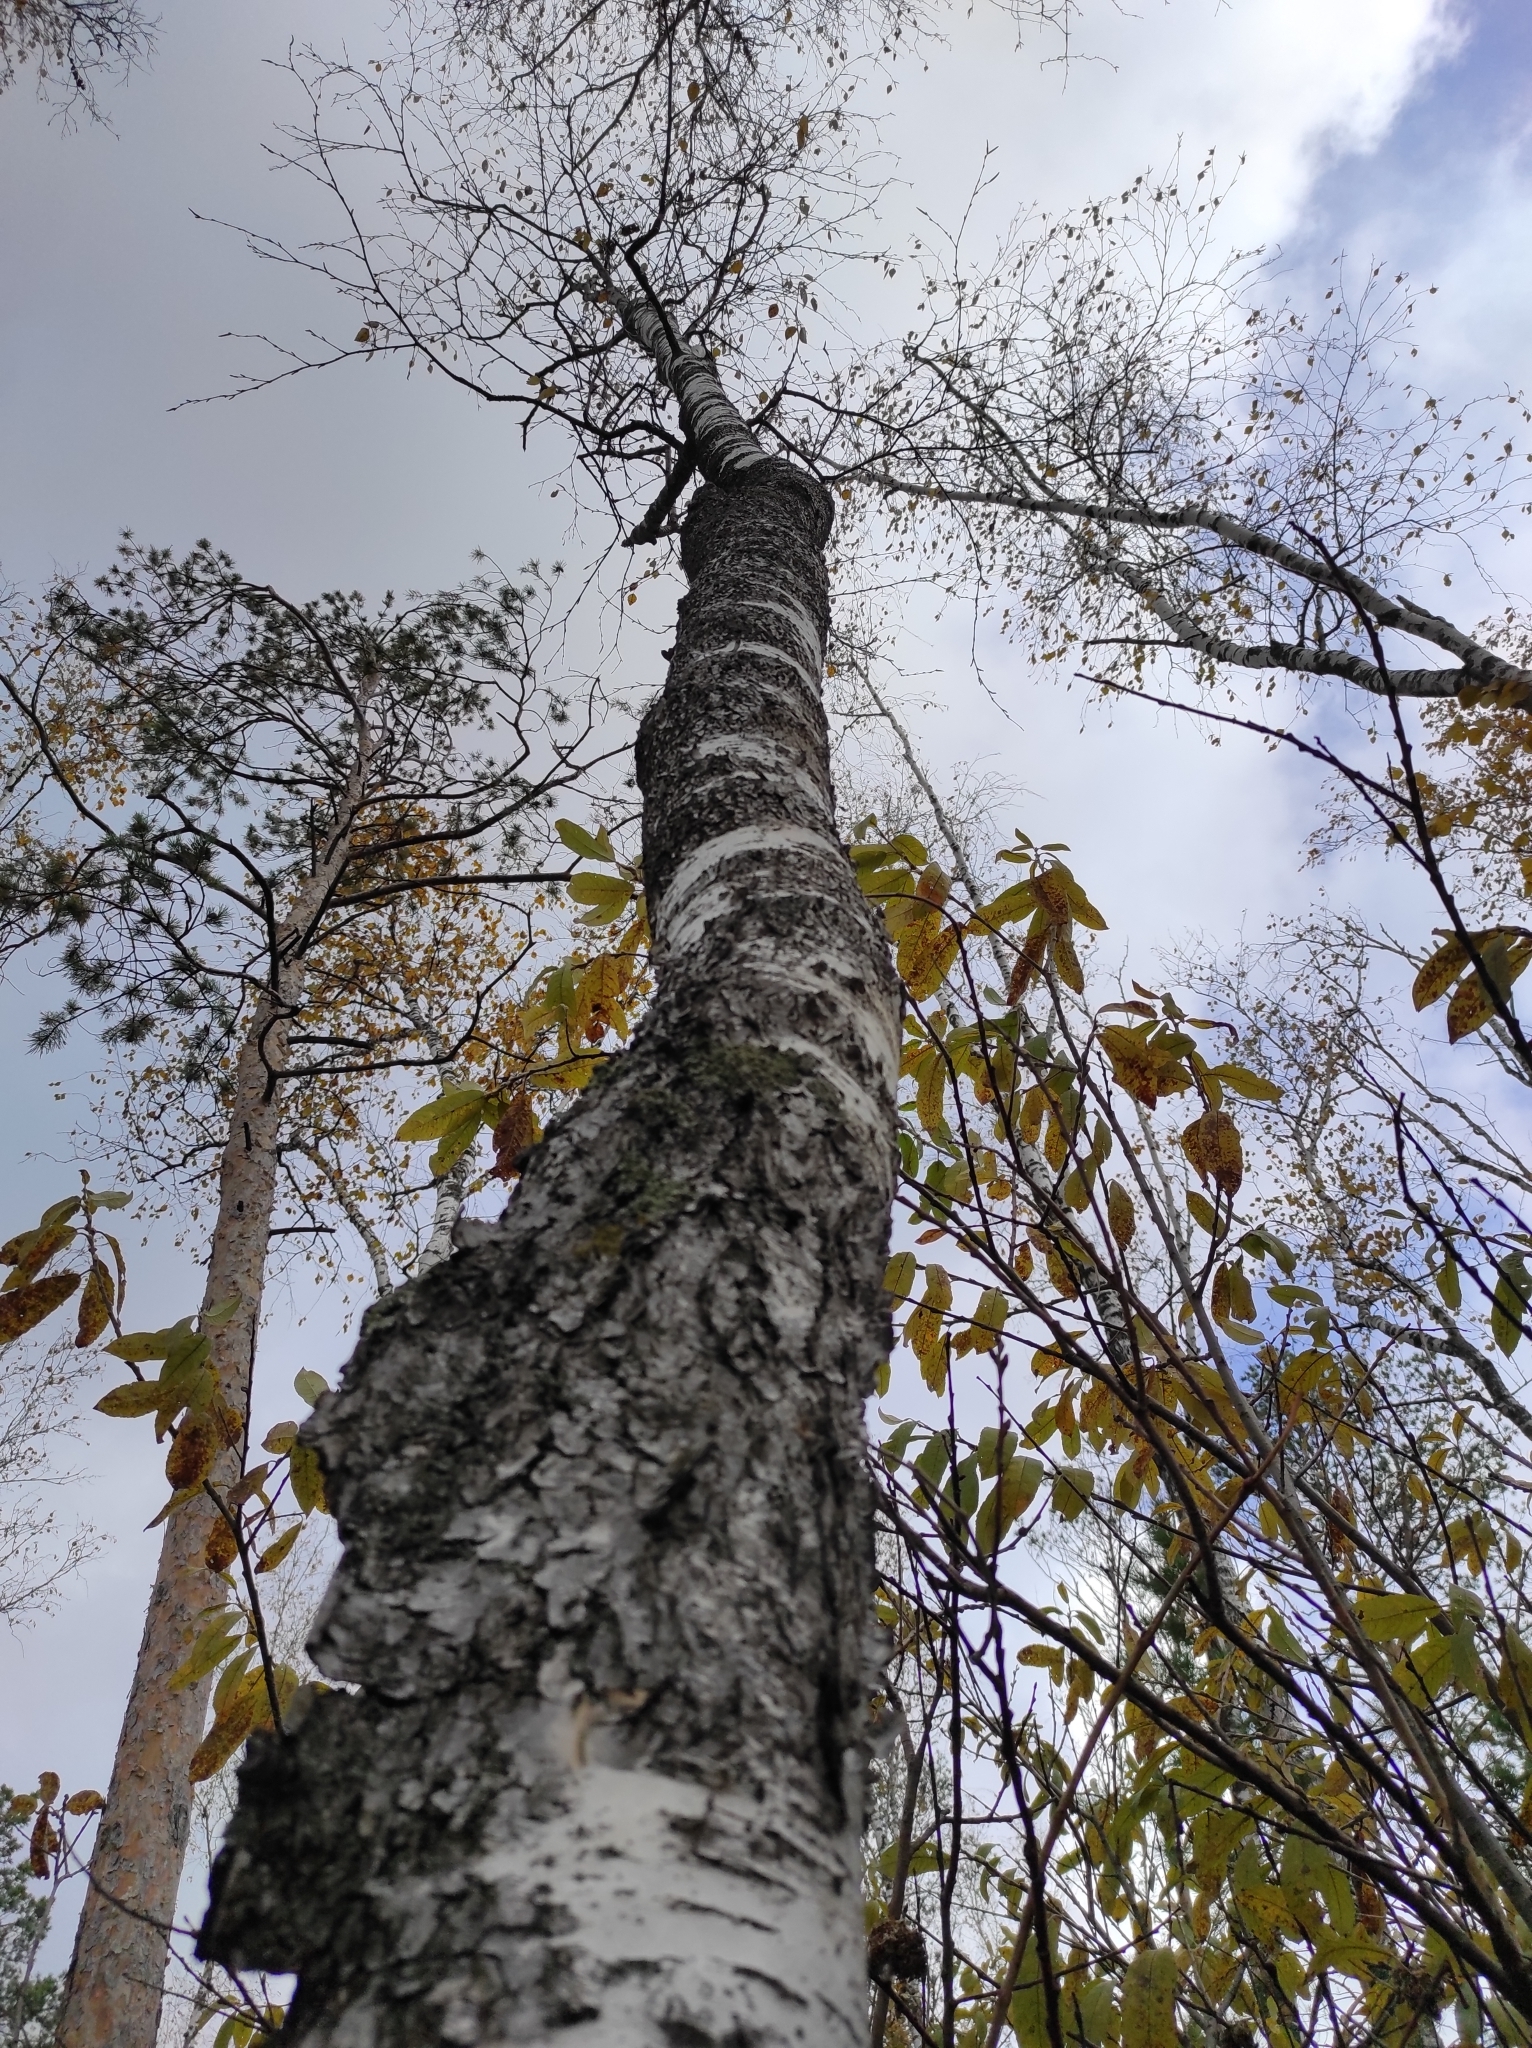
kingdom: Plantae
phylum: Tracheophyta
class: Magnoliopsida
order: Fagales
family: Betulaceae
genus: Betula
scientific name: Betula pendula
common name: Silver birch
